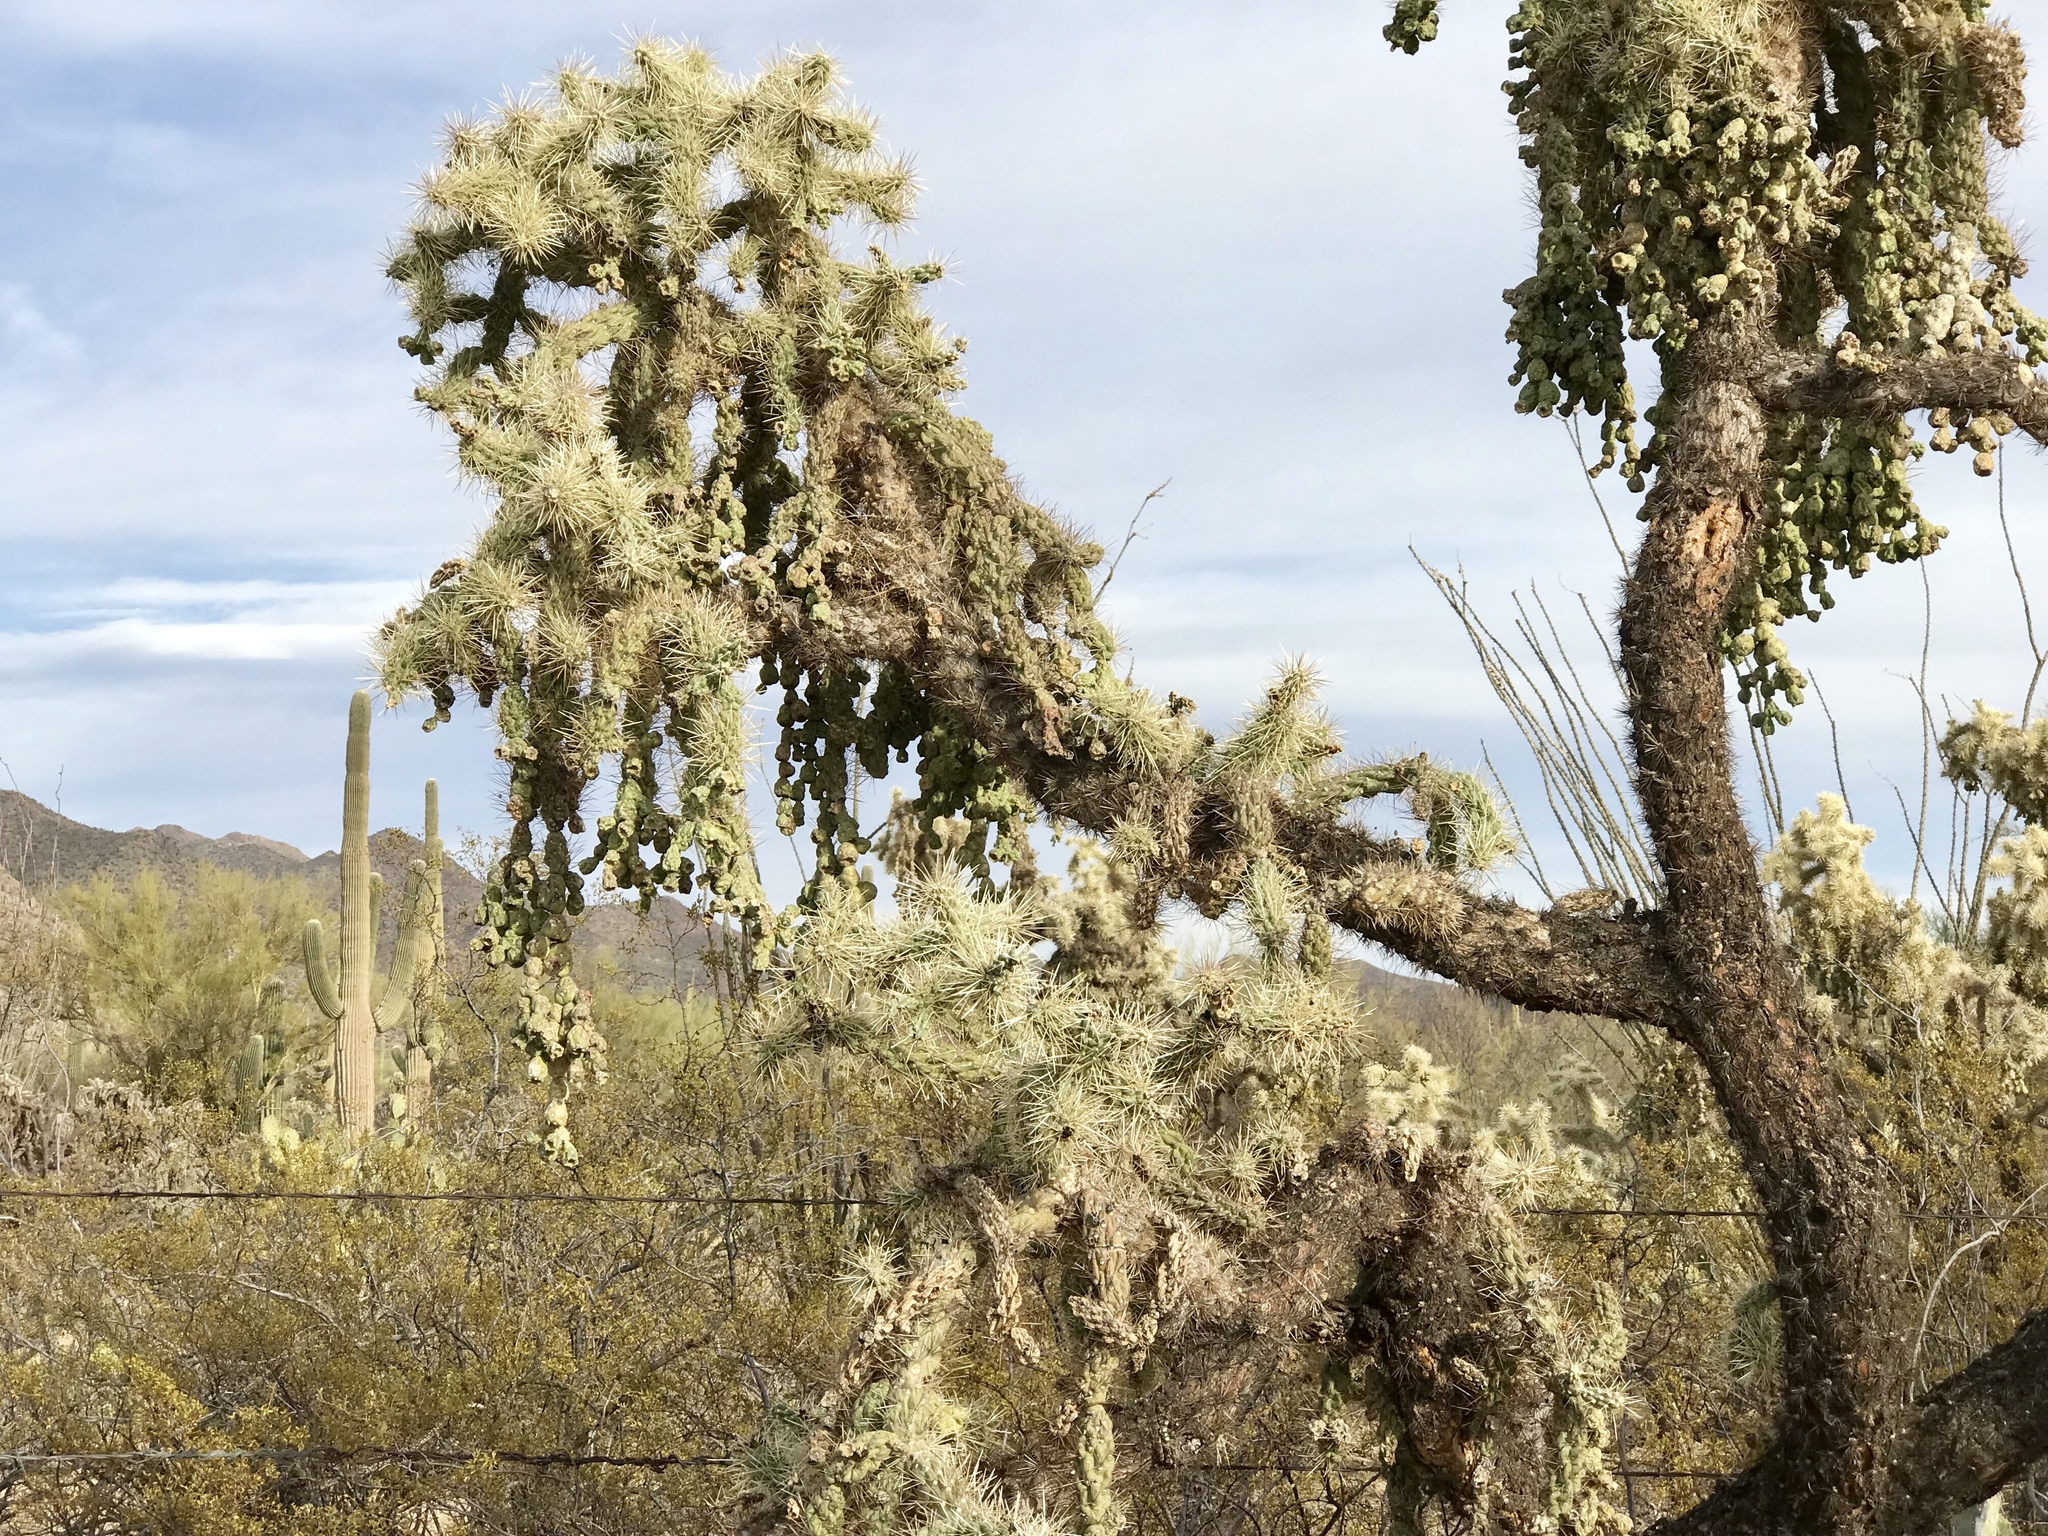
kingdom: Plantae
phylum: Tracheophyta
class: Magnoliopsida
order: Caryophyllales
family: Cactaceae
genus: Cylindropuntia
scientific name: Cylindropuntia fulgida
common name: Jumping cholla
